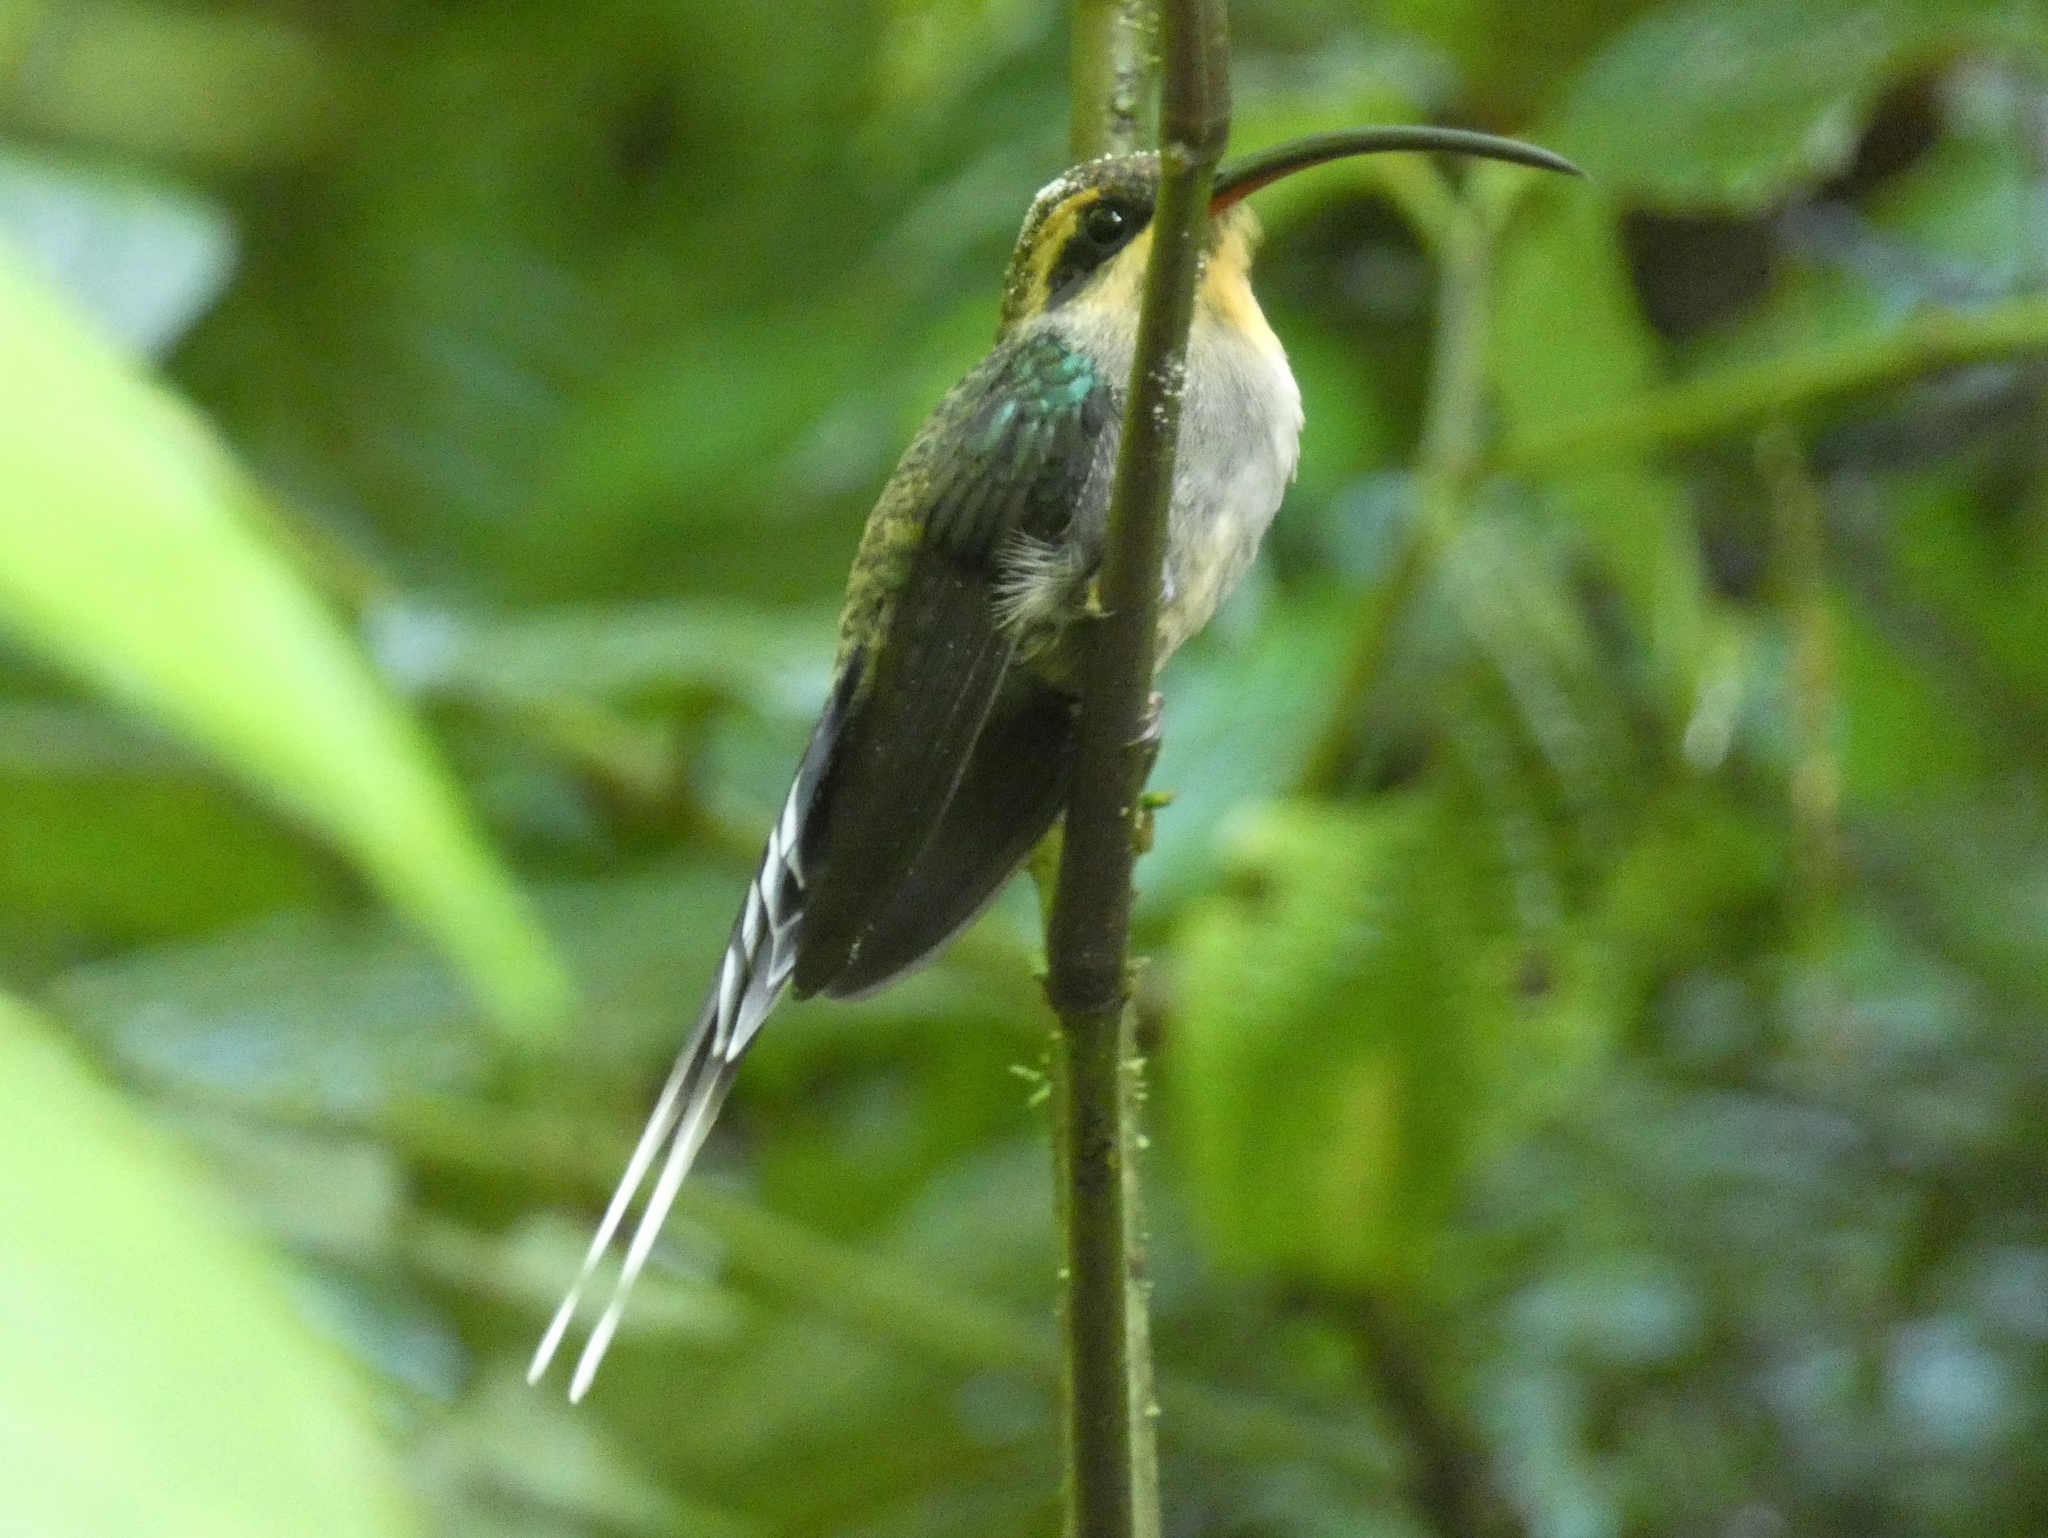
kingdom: Animalia
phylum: Chordata
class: Aves
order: Apodiformes
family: Trochilidae
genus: Phaethornis
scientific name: Phaethornis longirostris
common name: Long-billed hermit
